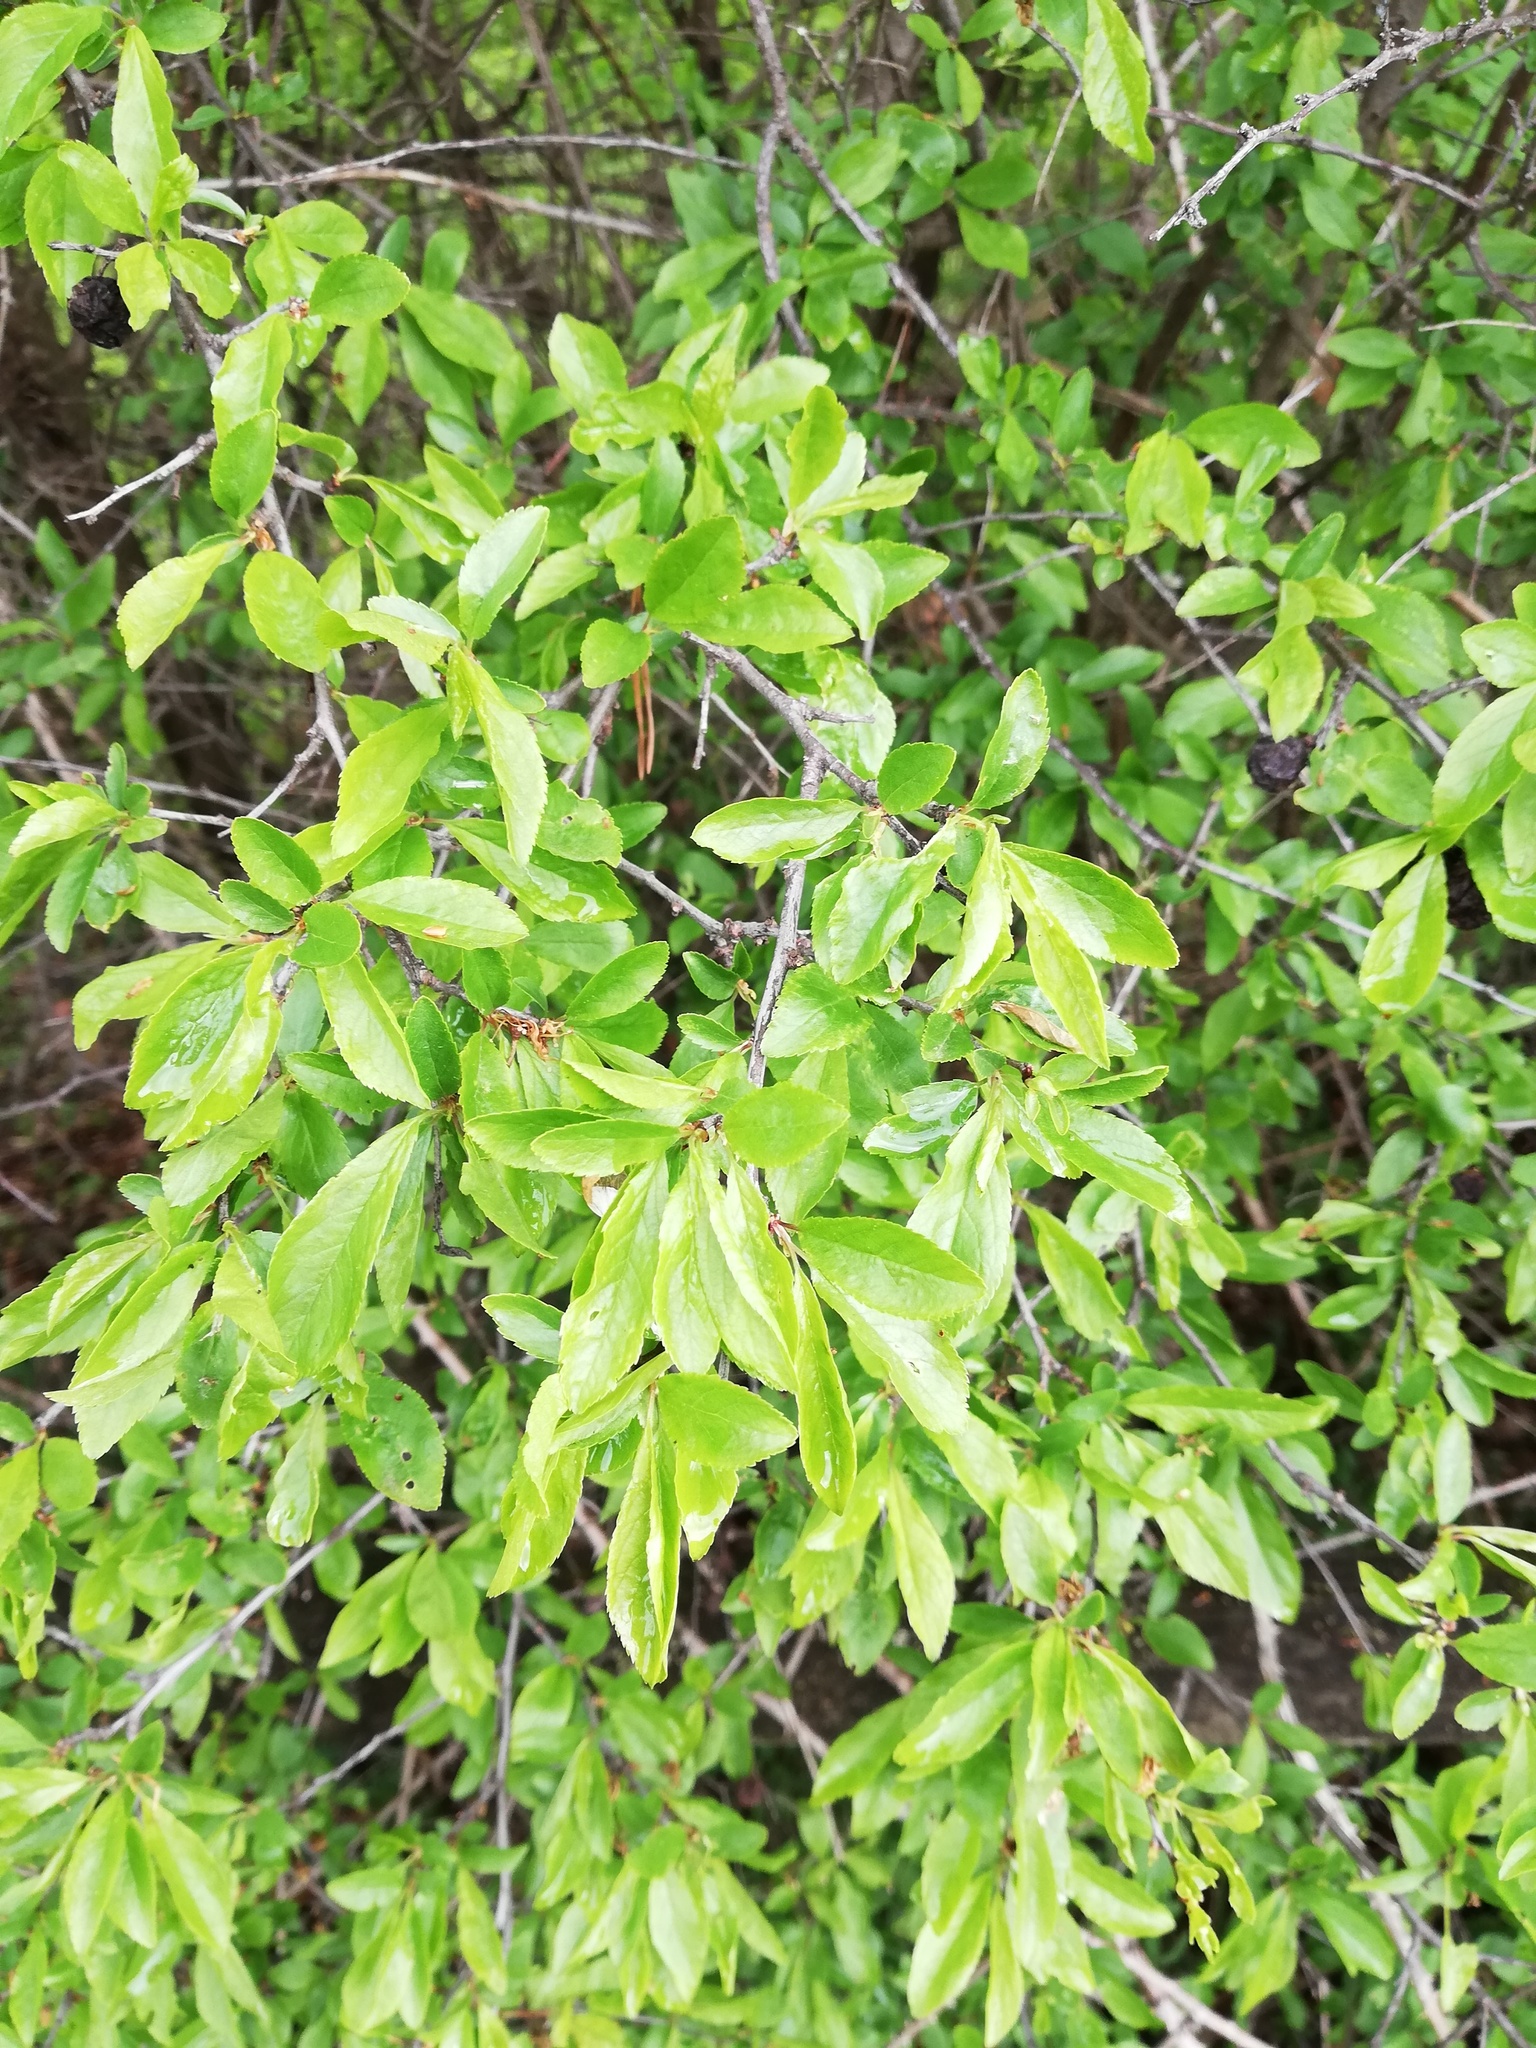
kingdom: Plantae
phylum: Tracheophyta
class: Magnoliopsida
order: Rosales
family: Rosaceae
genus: Prunus
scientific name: Prunus spinosa
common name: Blackthorn
